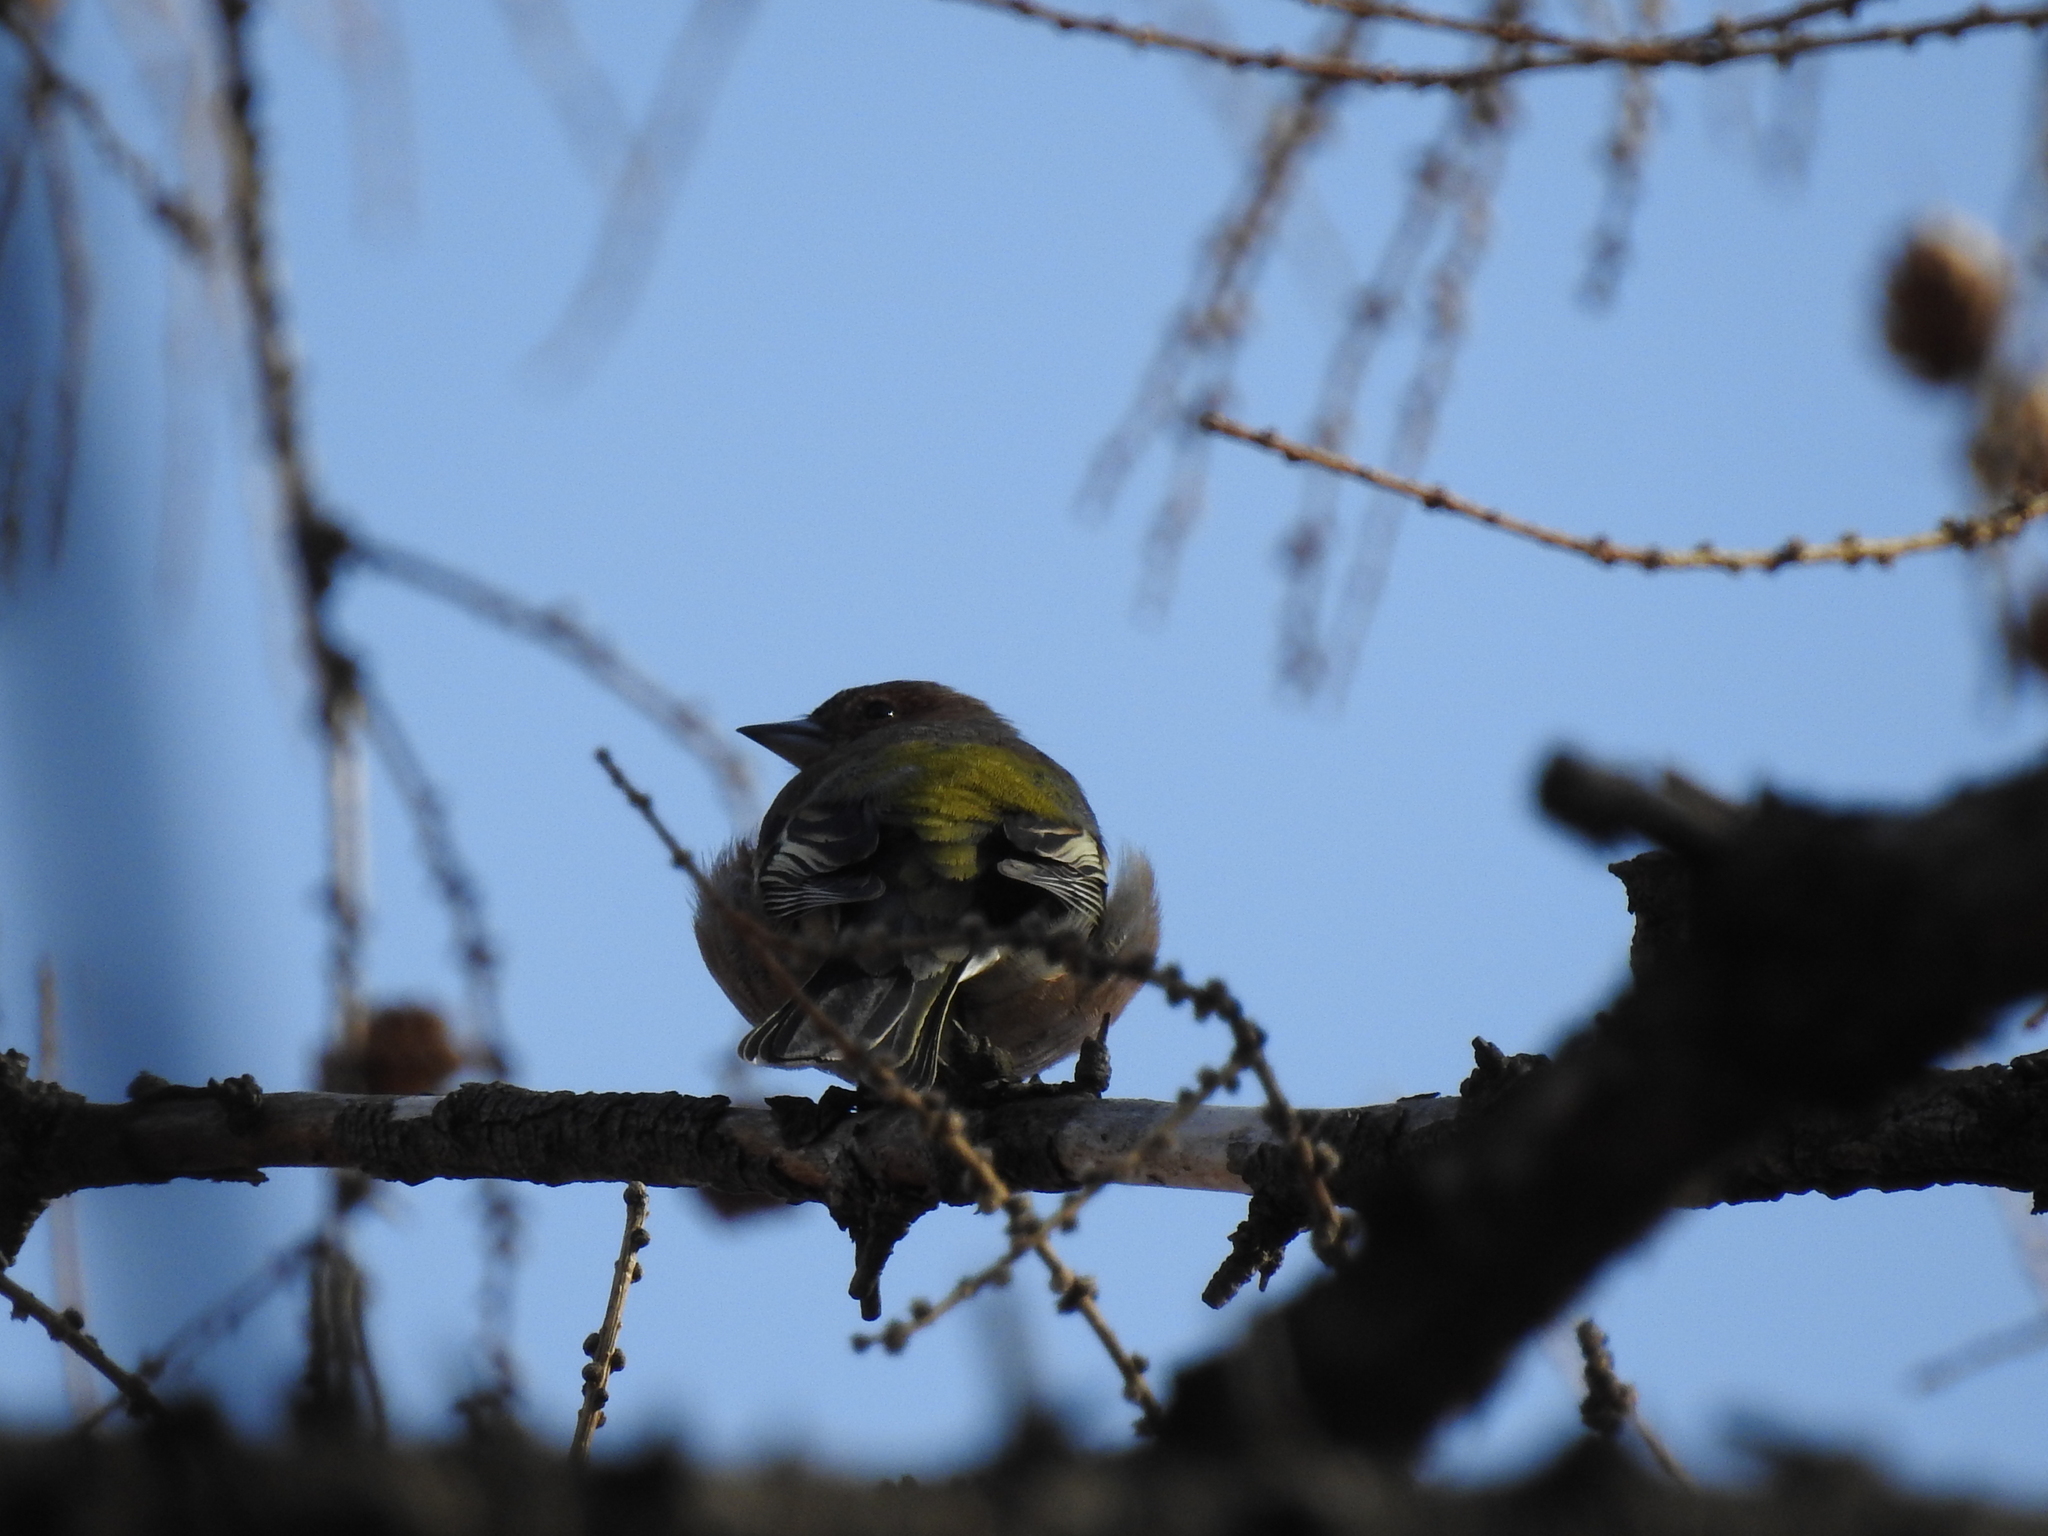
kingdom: Animalia
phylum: Chordata
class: Aves
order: Passeriformes
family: Fringillidae
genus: Fringilla
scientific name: Fringilla coelebs
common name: Common chaffinch
